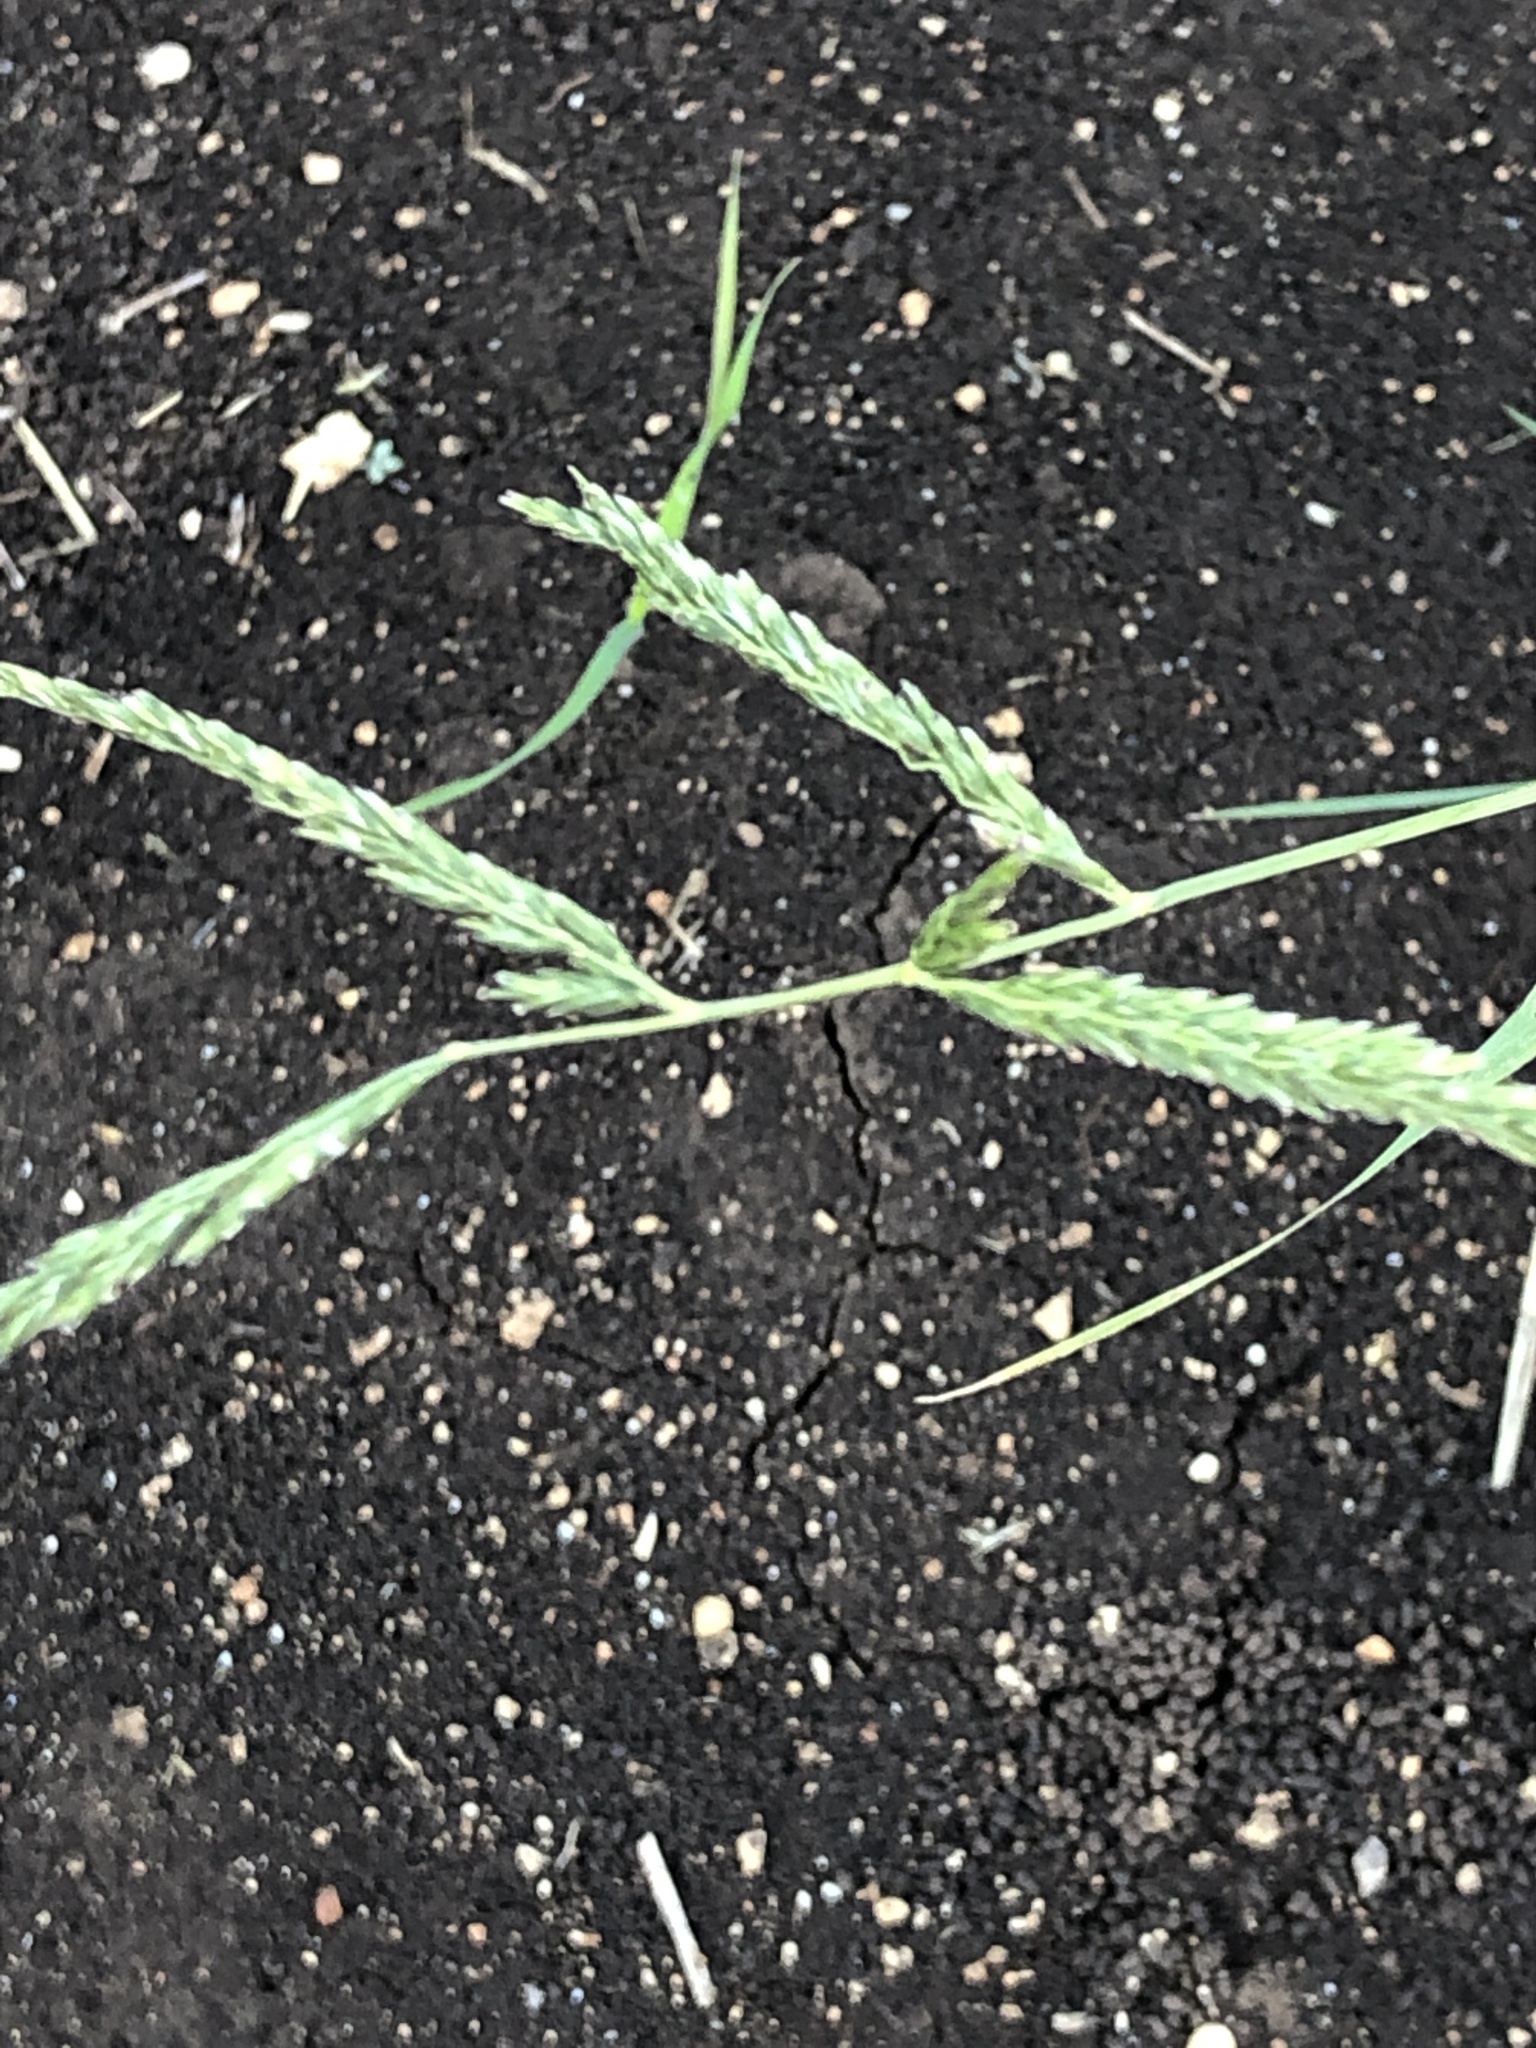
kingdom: Plantae
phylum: Tracheophyta
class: Liliopsida
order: Poales
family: Poaceae
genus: Disakisperma
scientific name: Disakisperma dubium
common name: Green sprangletop
